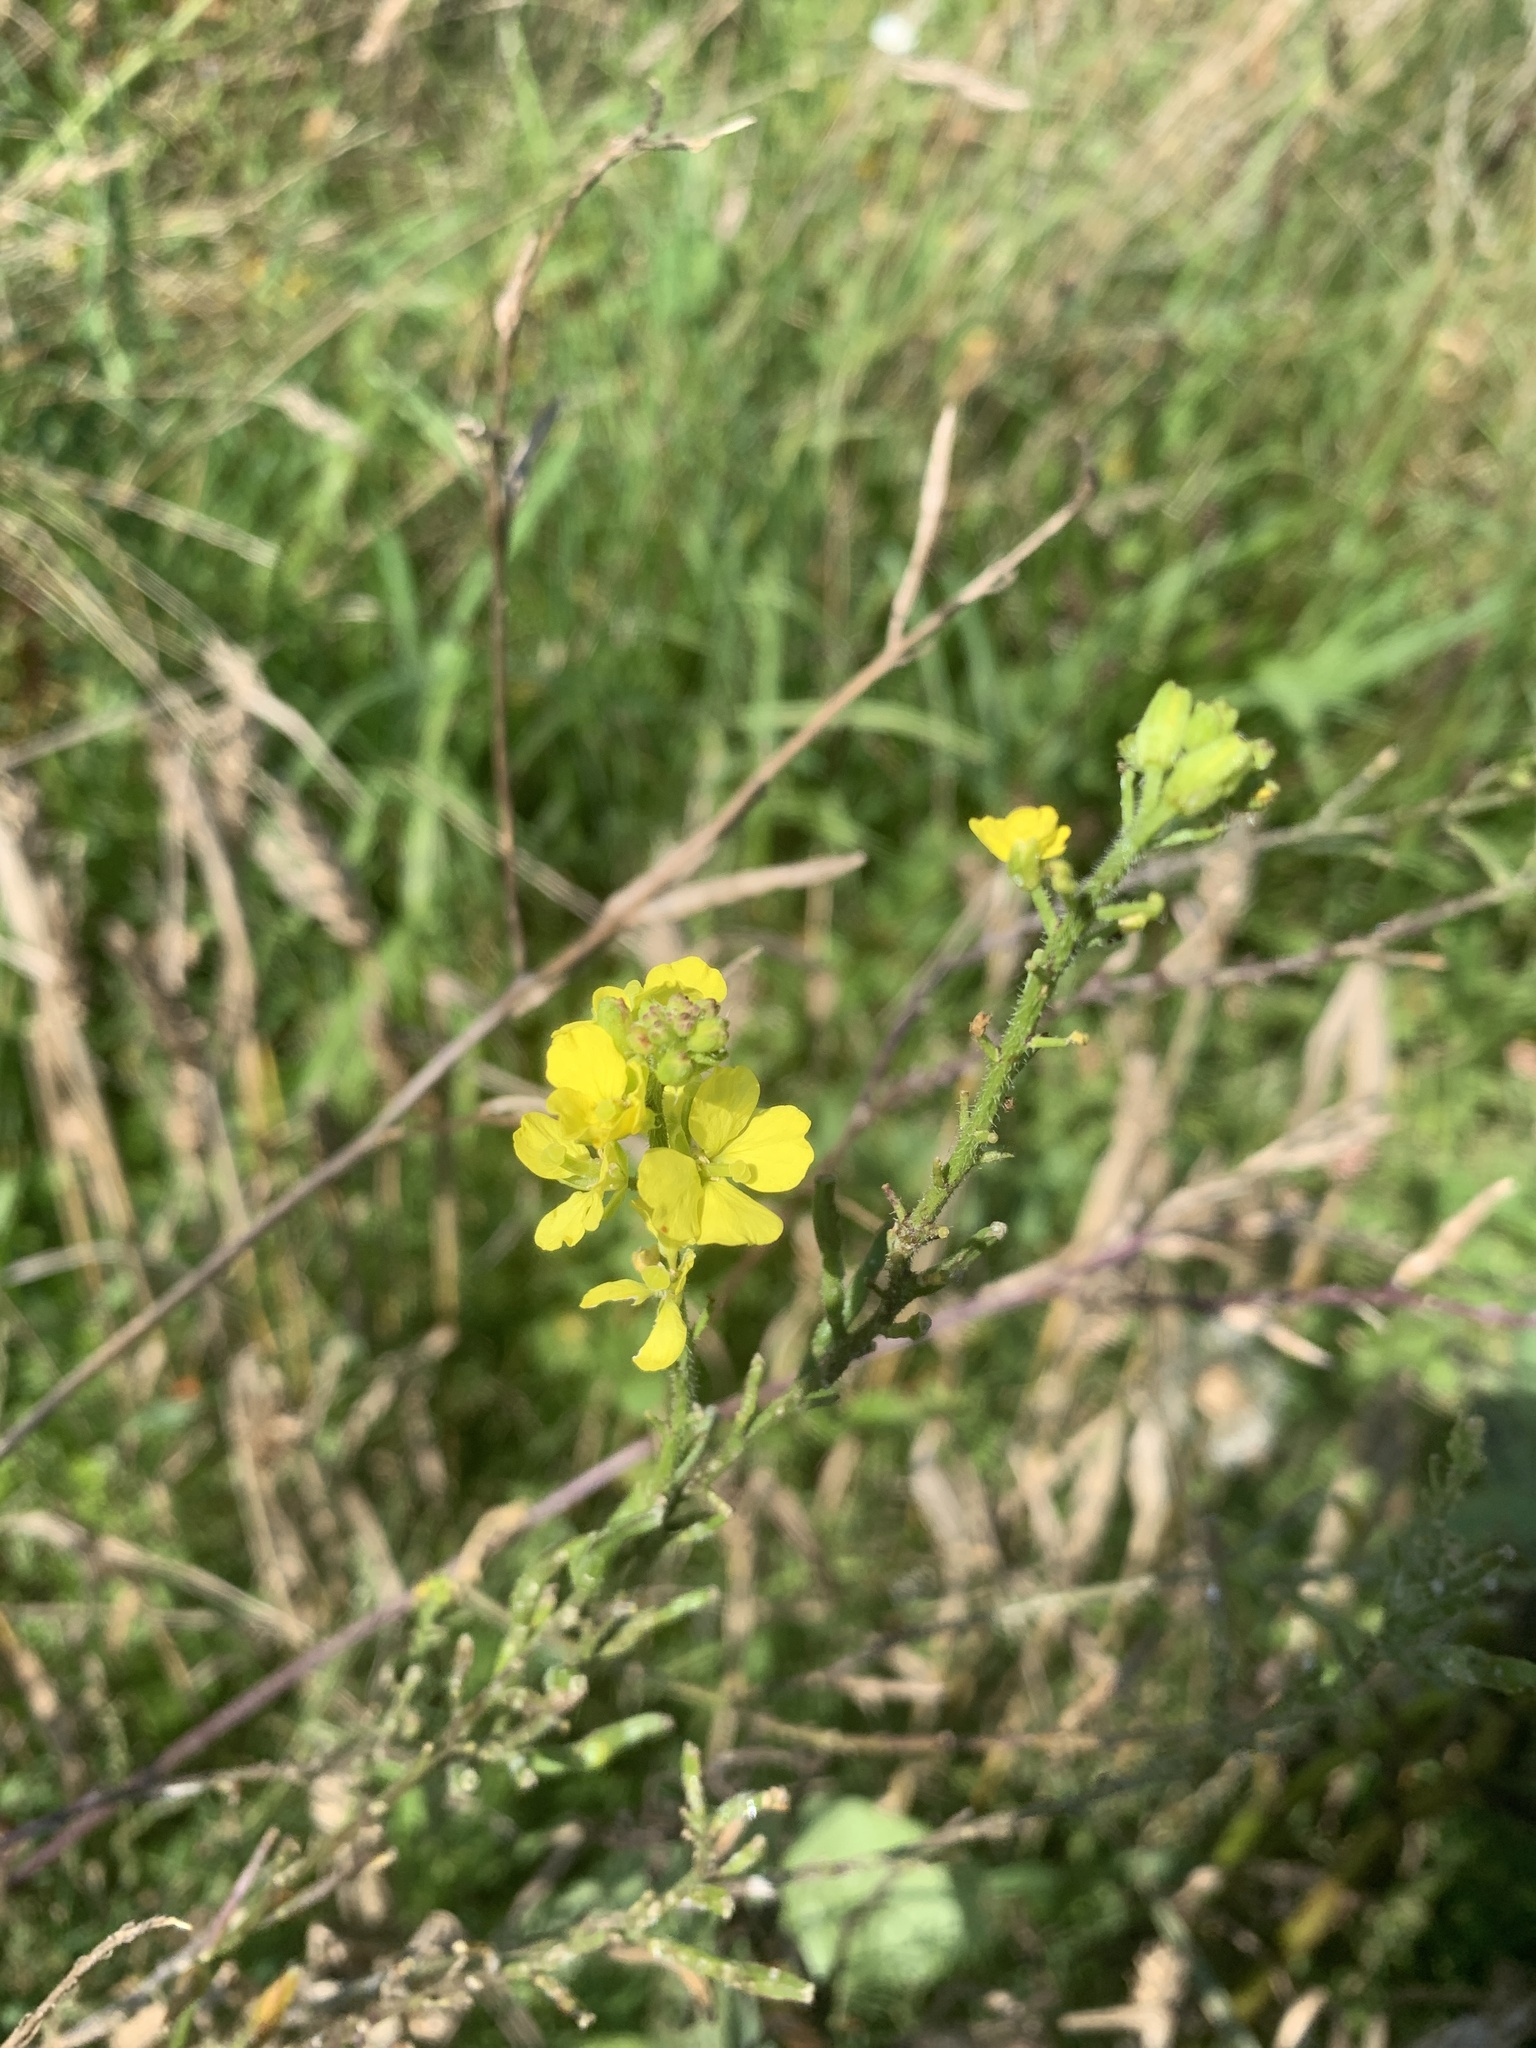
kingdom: Plantae
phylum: Tracheophyta
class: Magnoliopsida
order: Brassicales
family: Brassicaceae
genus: Hirschfeldia
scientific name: Hirschfeldia incana
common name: Hoary mustard
